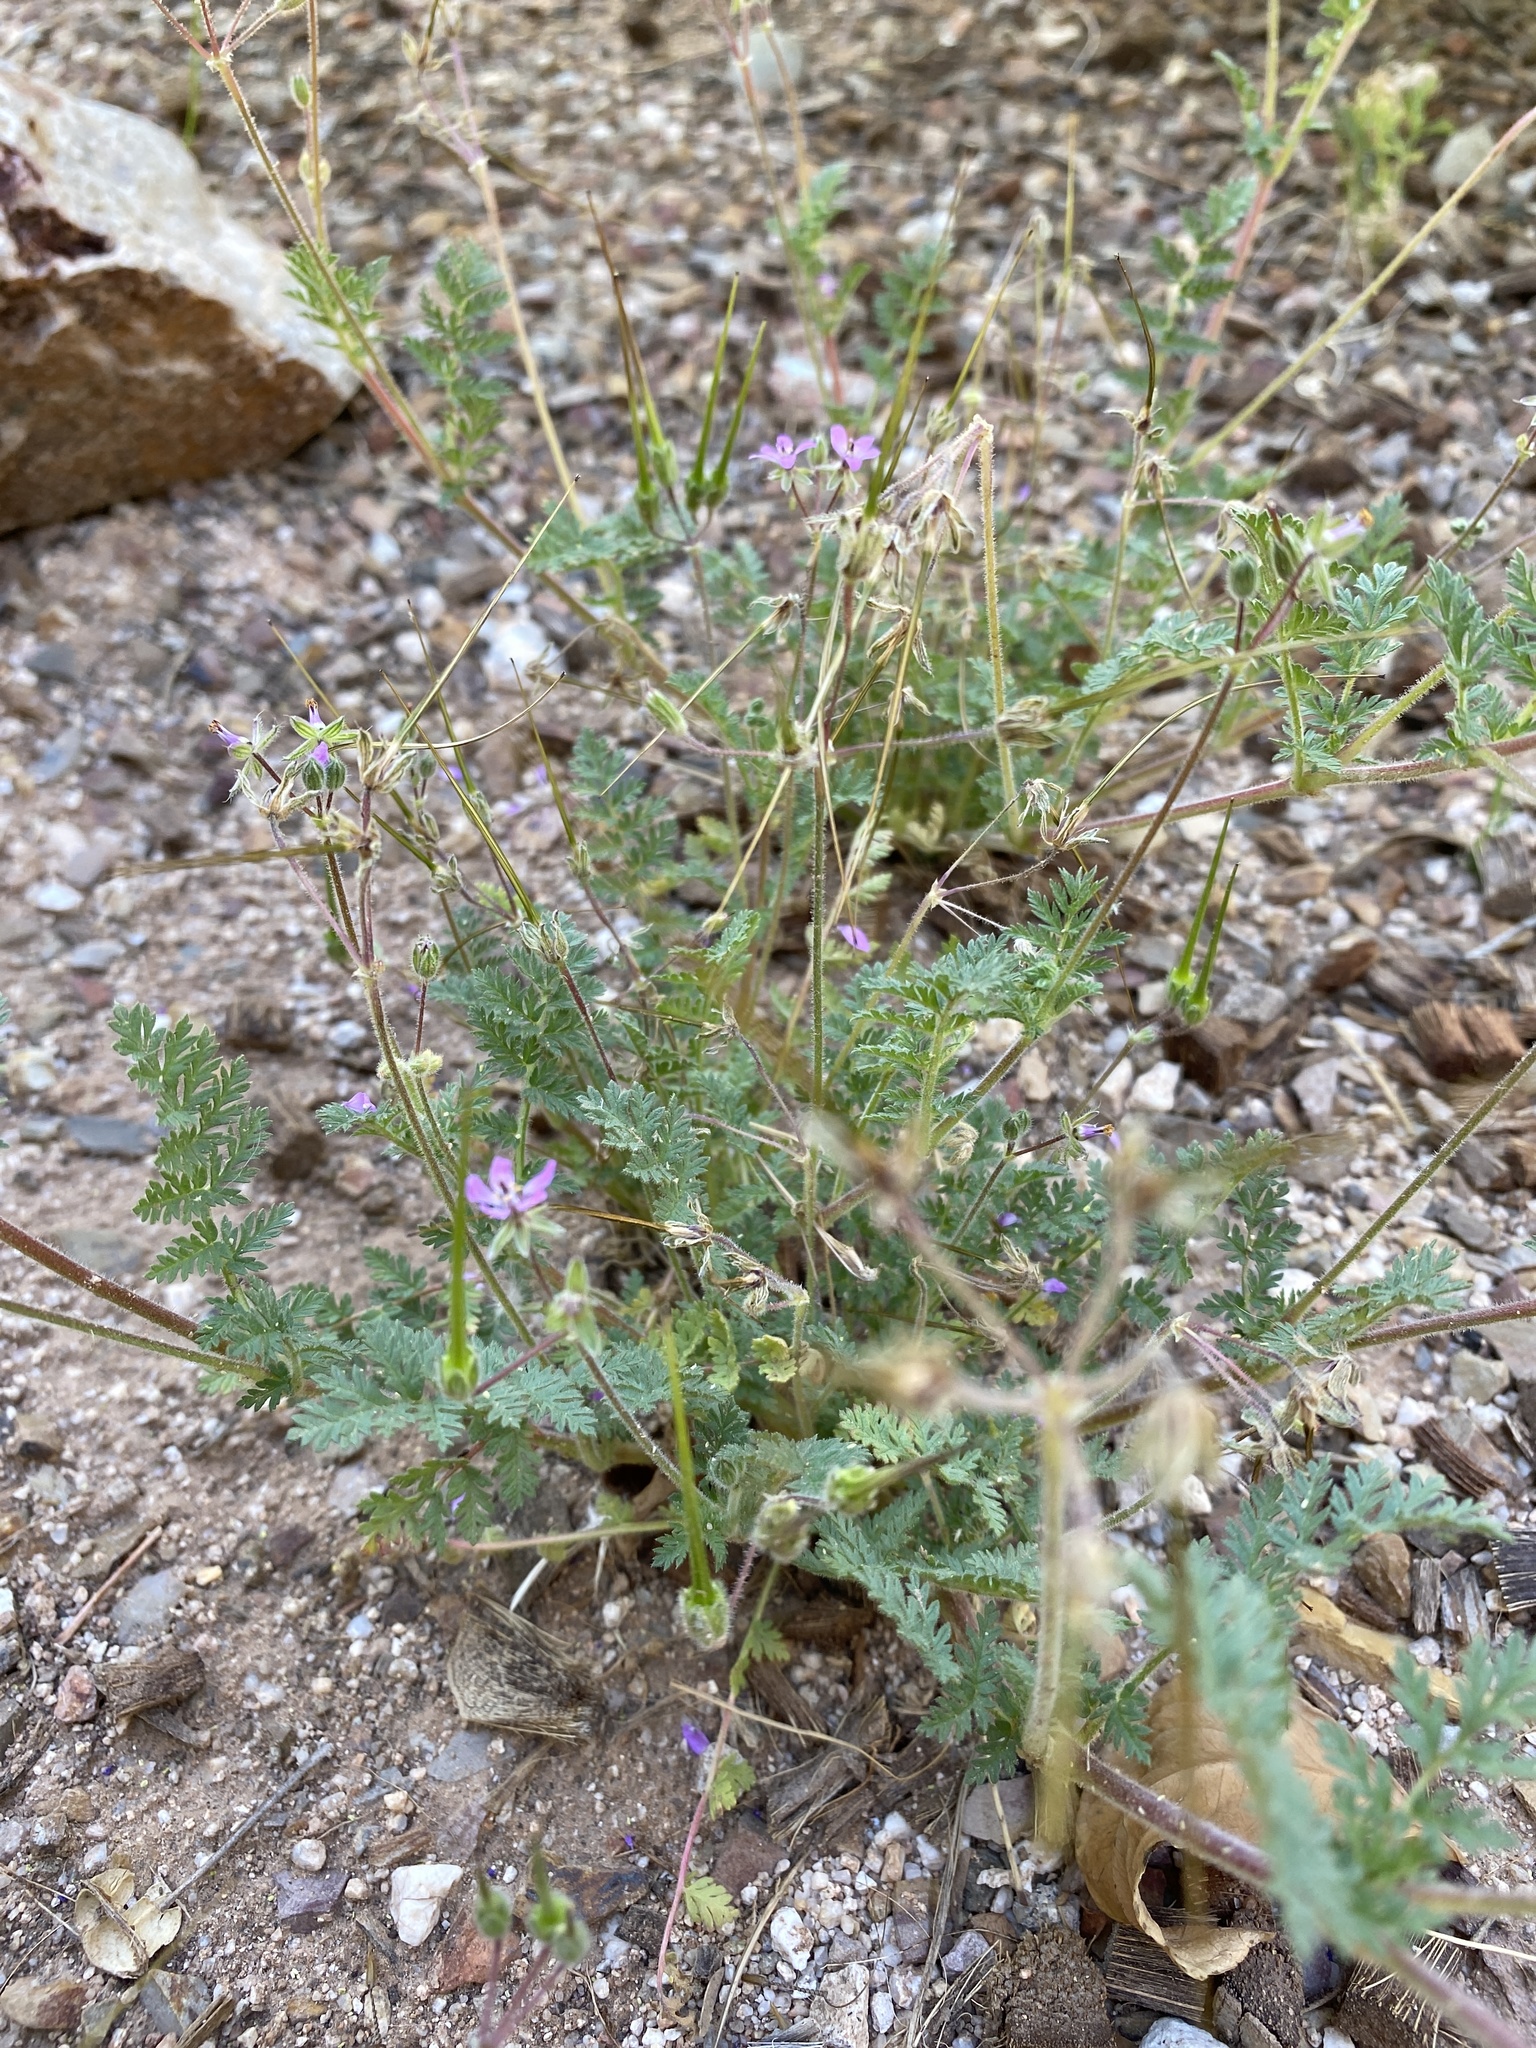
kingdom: Plantae
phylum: Tracheophyta
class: Magnoliopsida
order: Geraniales
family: Geraniaceae
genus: Erodium
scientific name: Erodium cicutarium
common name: Common stork's-bill
